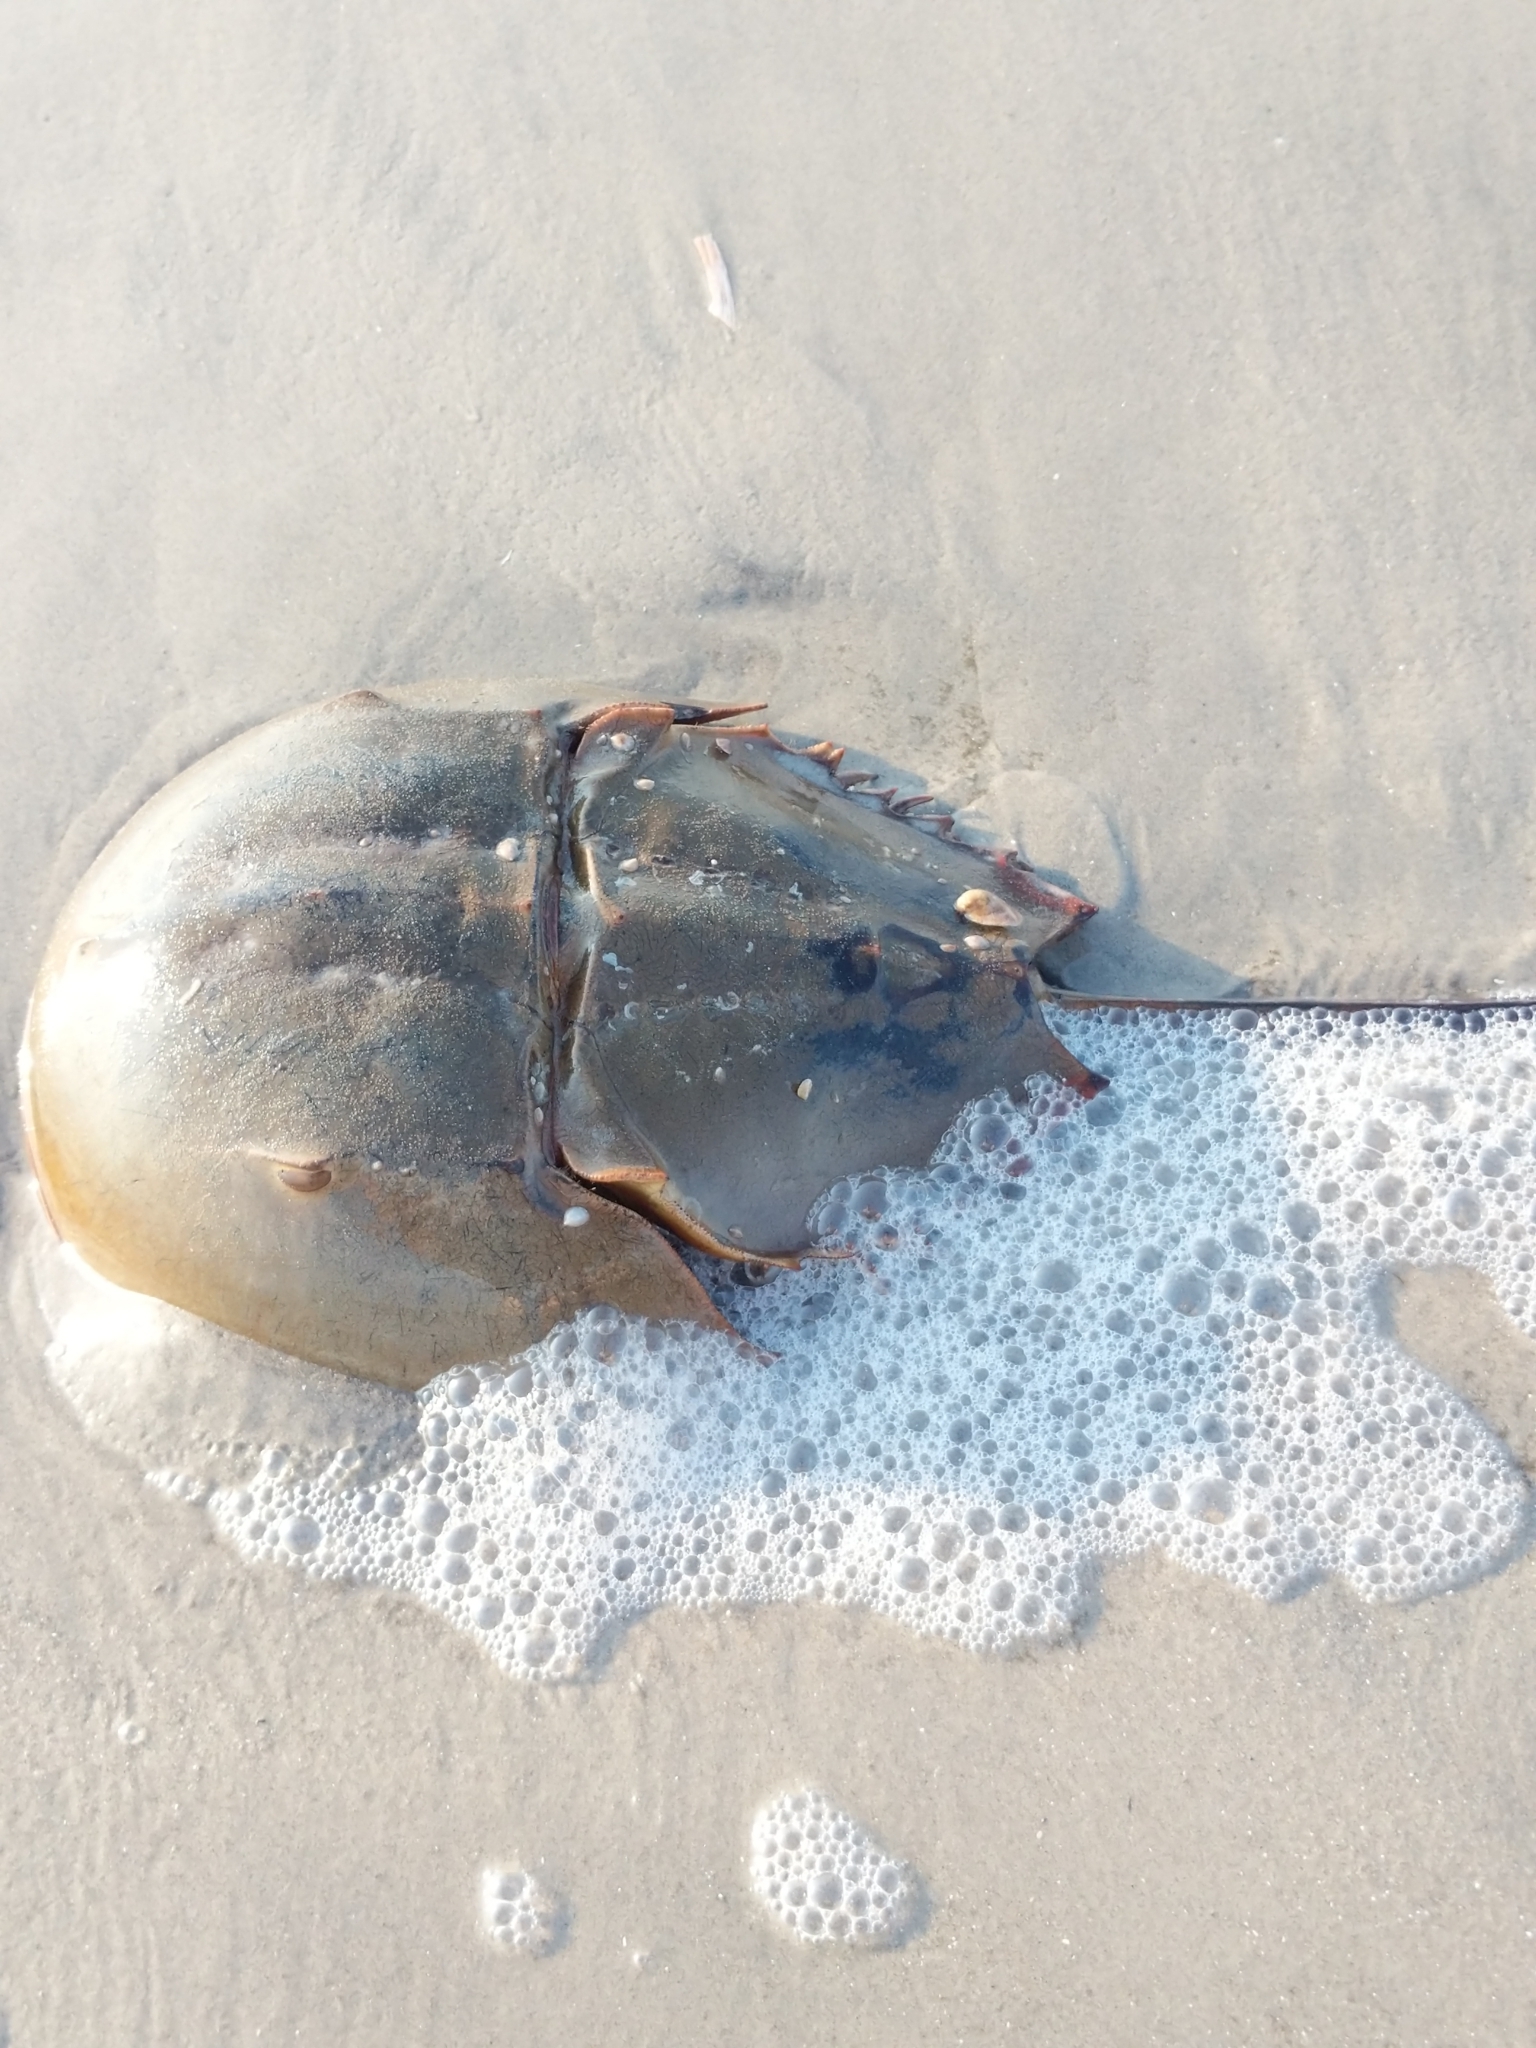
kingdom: Animalia
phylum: Arthropoda
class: Merostomata
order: Xiphosurida
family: Limulidae
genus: Limulus
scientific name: Limulus polyphemus
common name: Horseshoe crab
